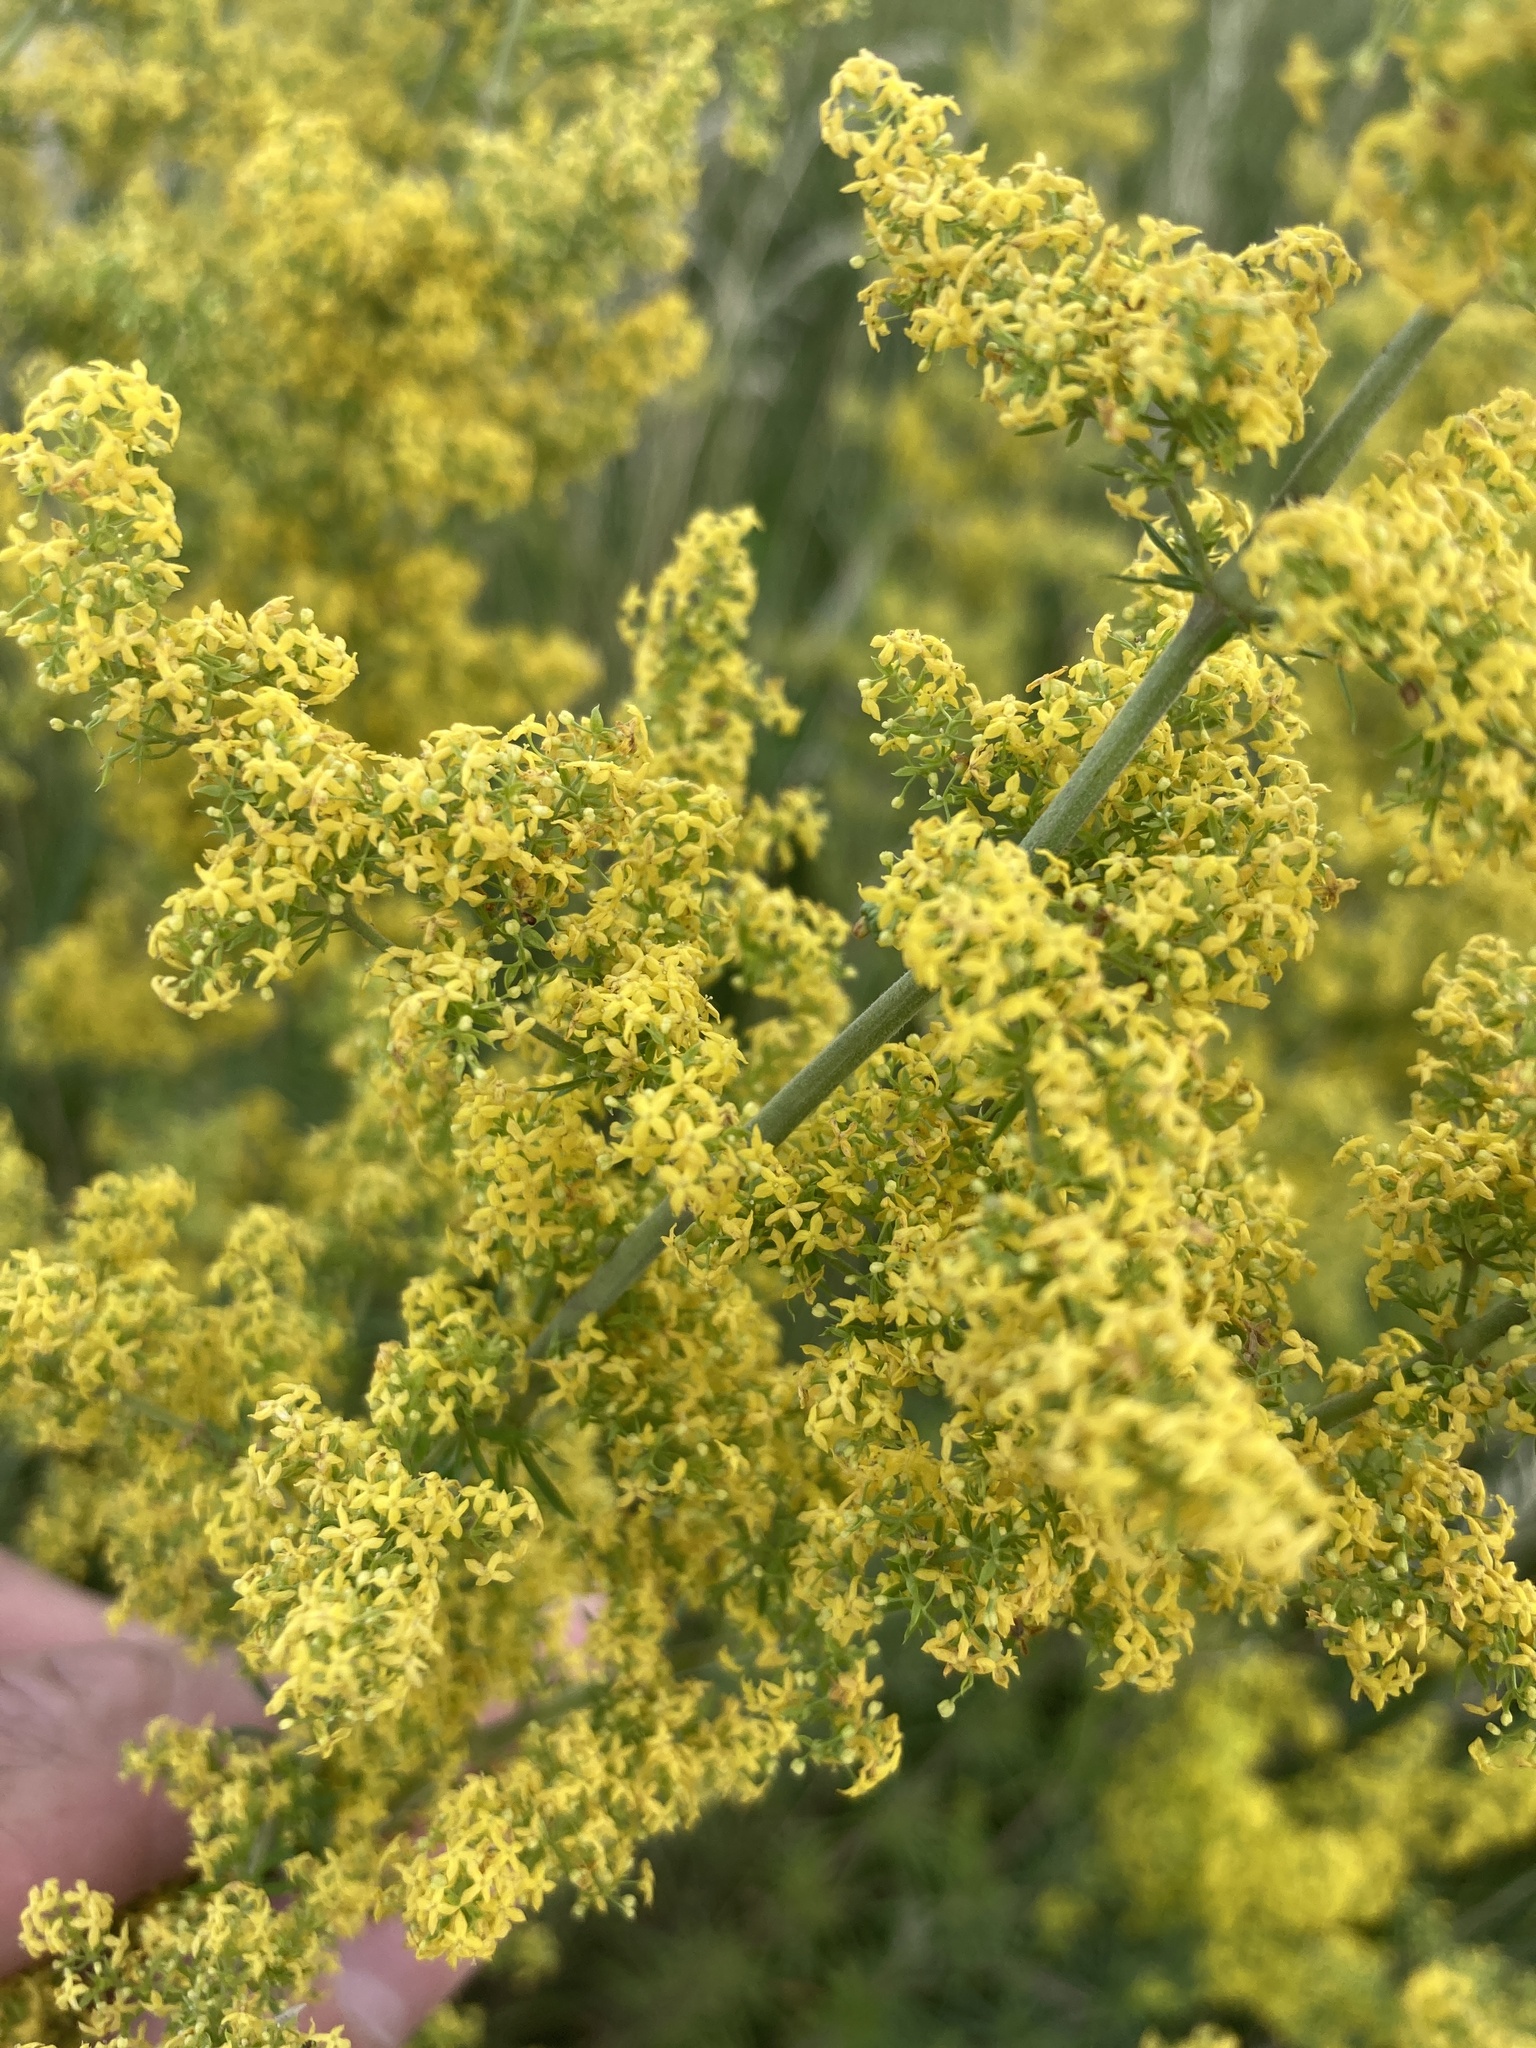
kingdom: Plantae
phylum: Tracheophyta
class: Magnoliopsida
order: Gentianales
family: Rubiaceae
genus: Galium
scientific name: Galium verum
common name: Lady's bedstraw
